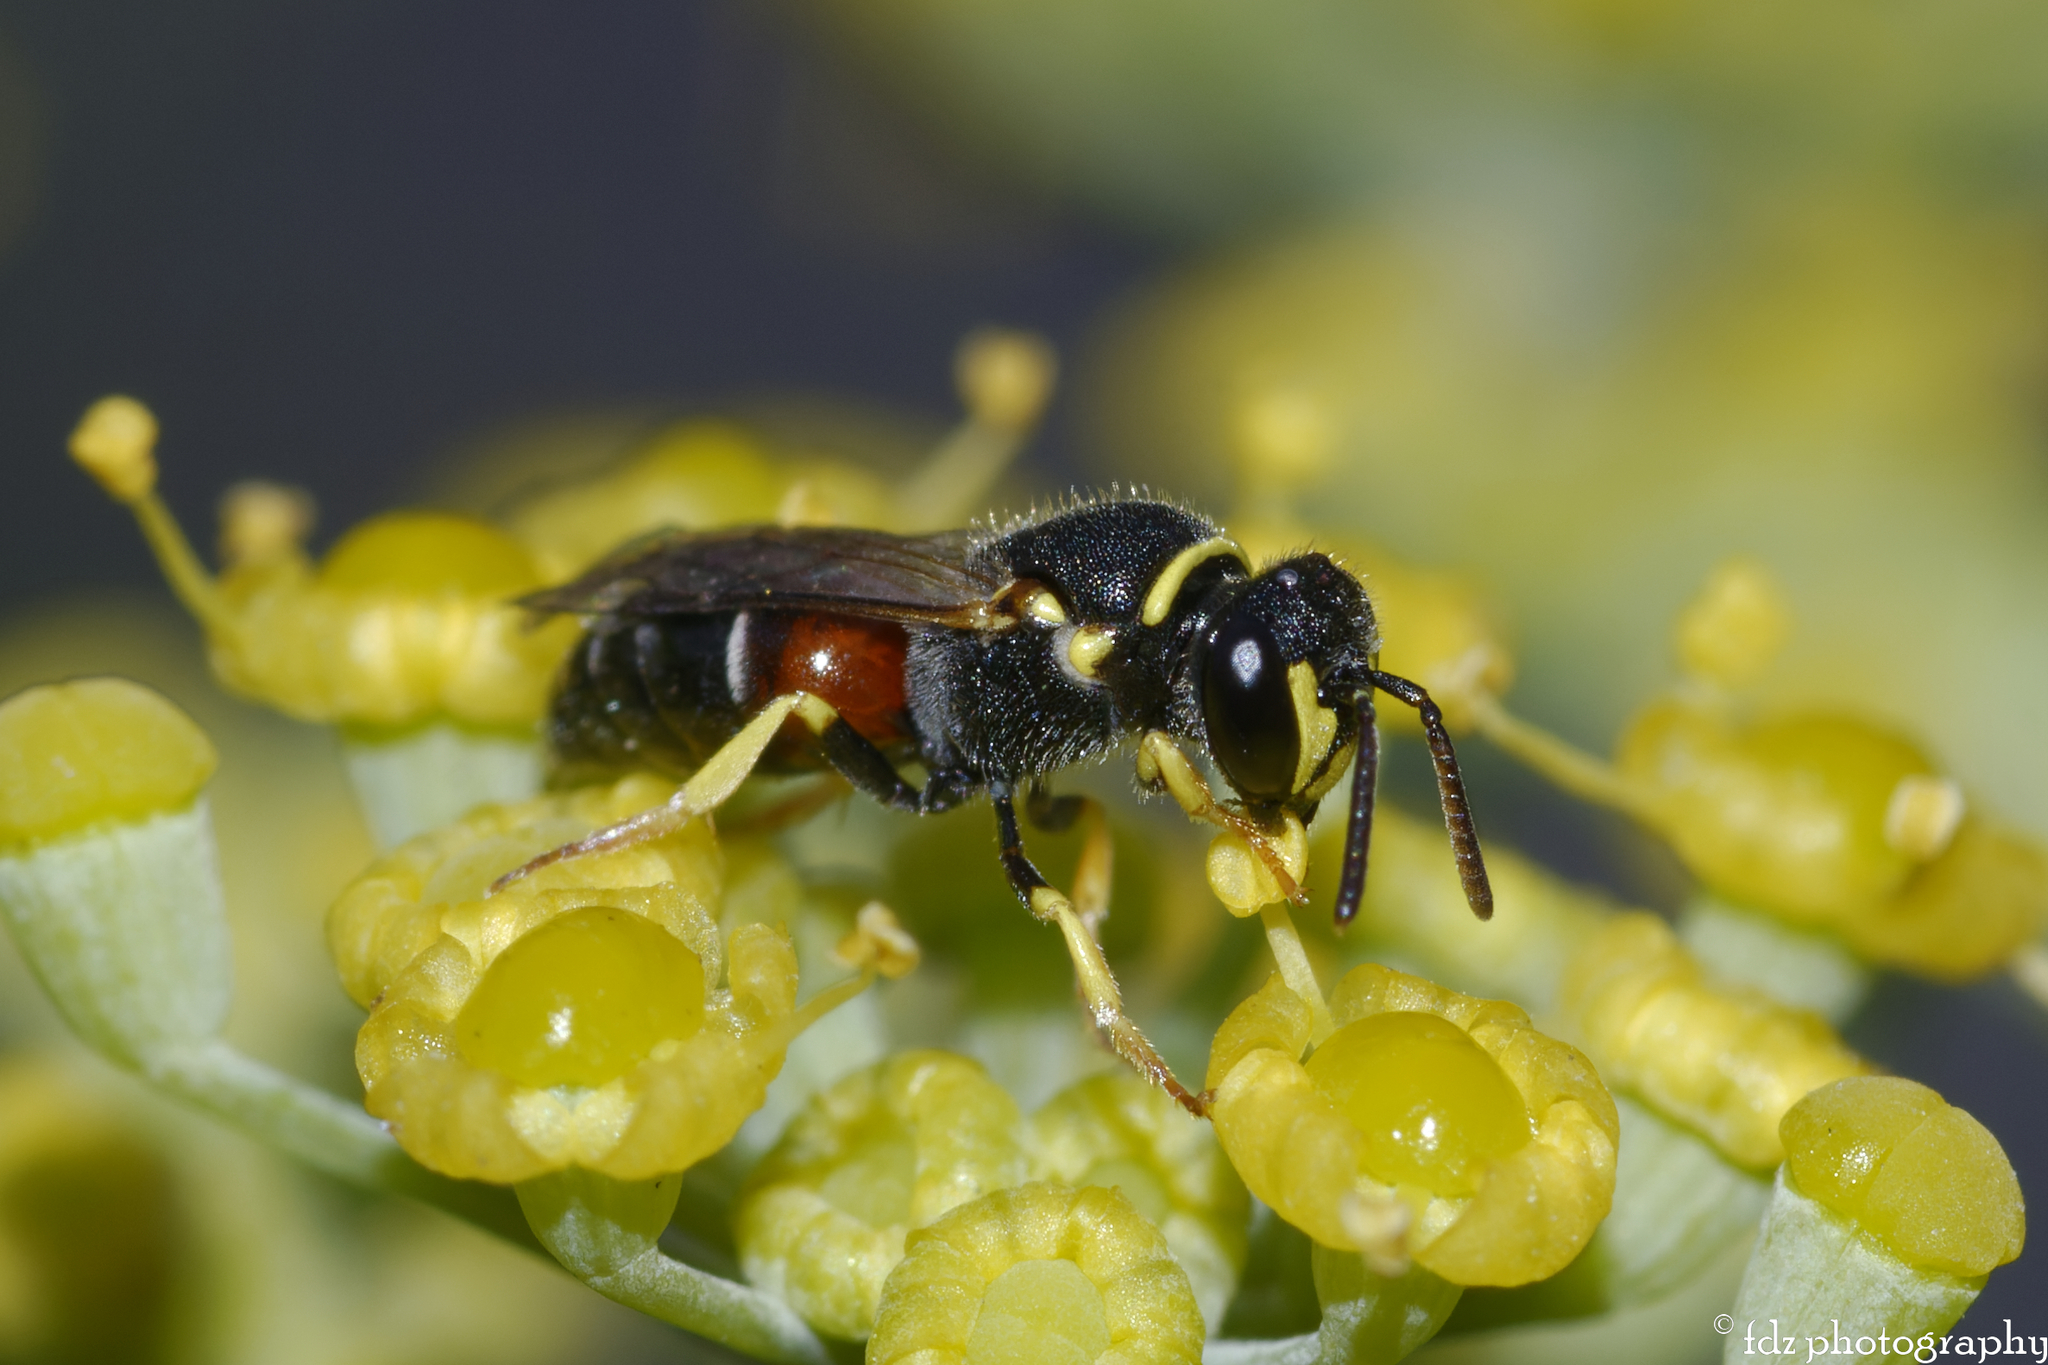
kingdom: Animalia
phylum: Arthropoda
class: Insecta
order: Hymenoptera
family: Colletidae
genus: Hylaeus
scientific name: Hylaeus sulphuripes
